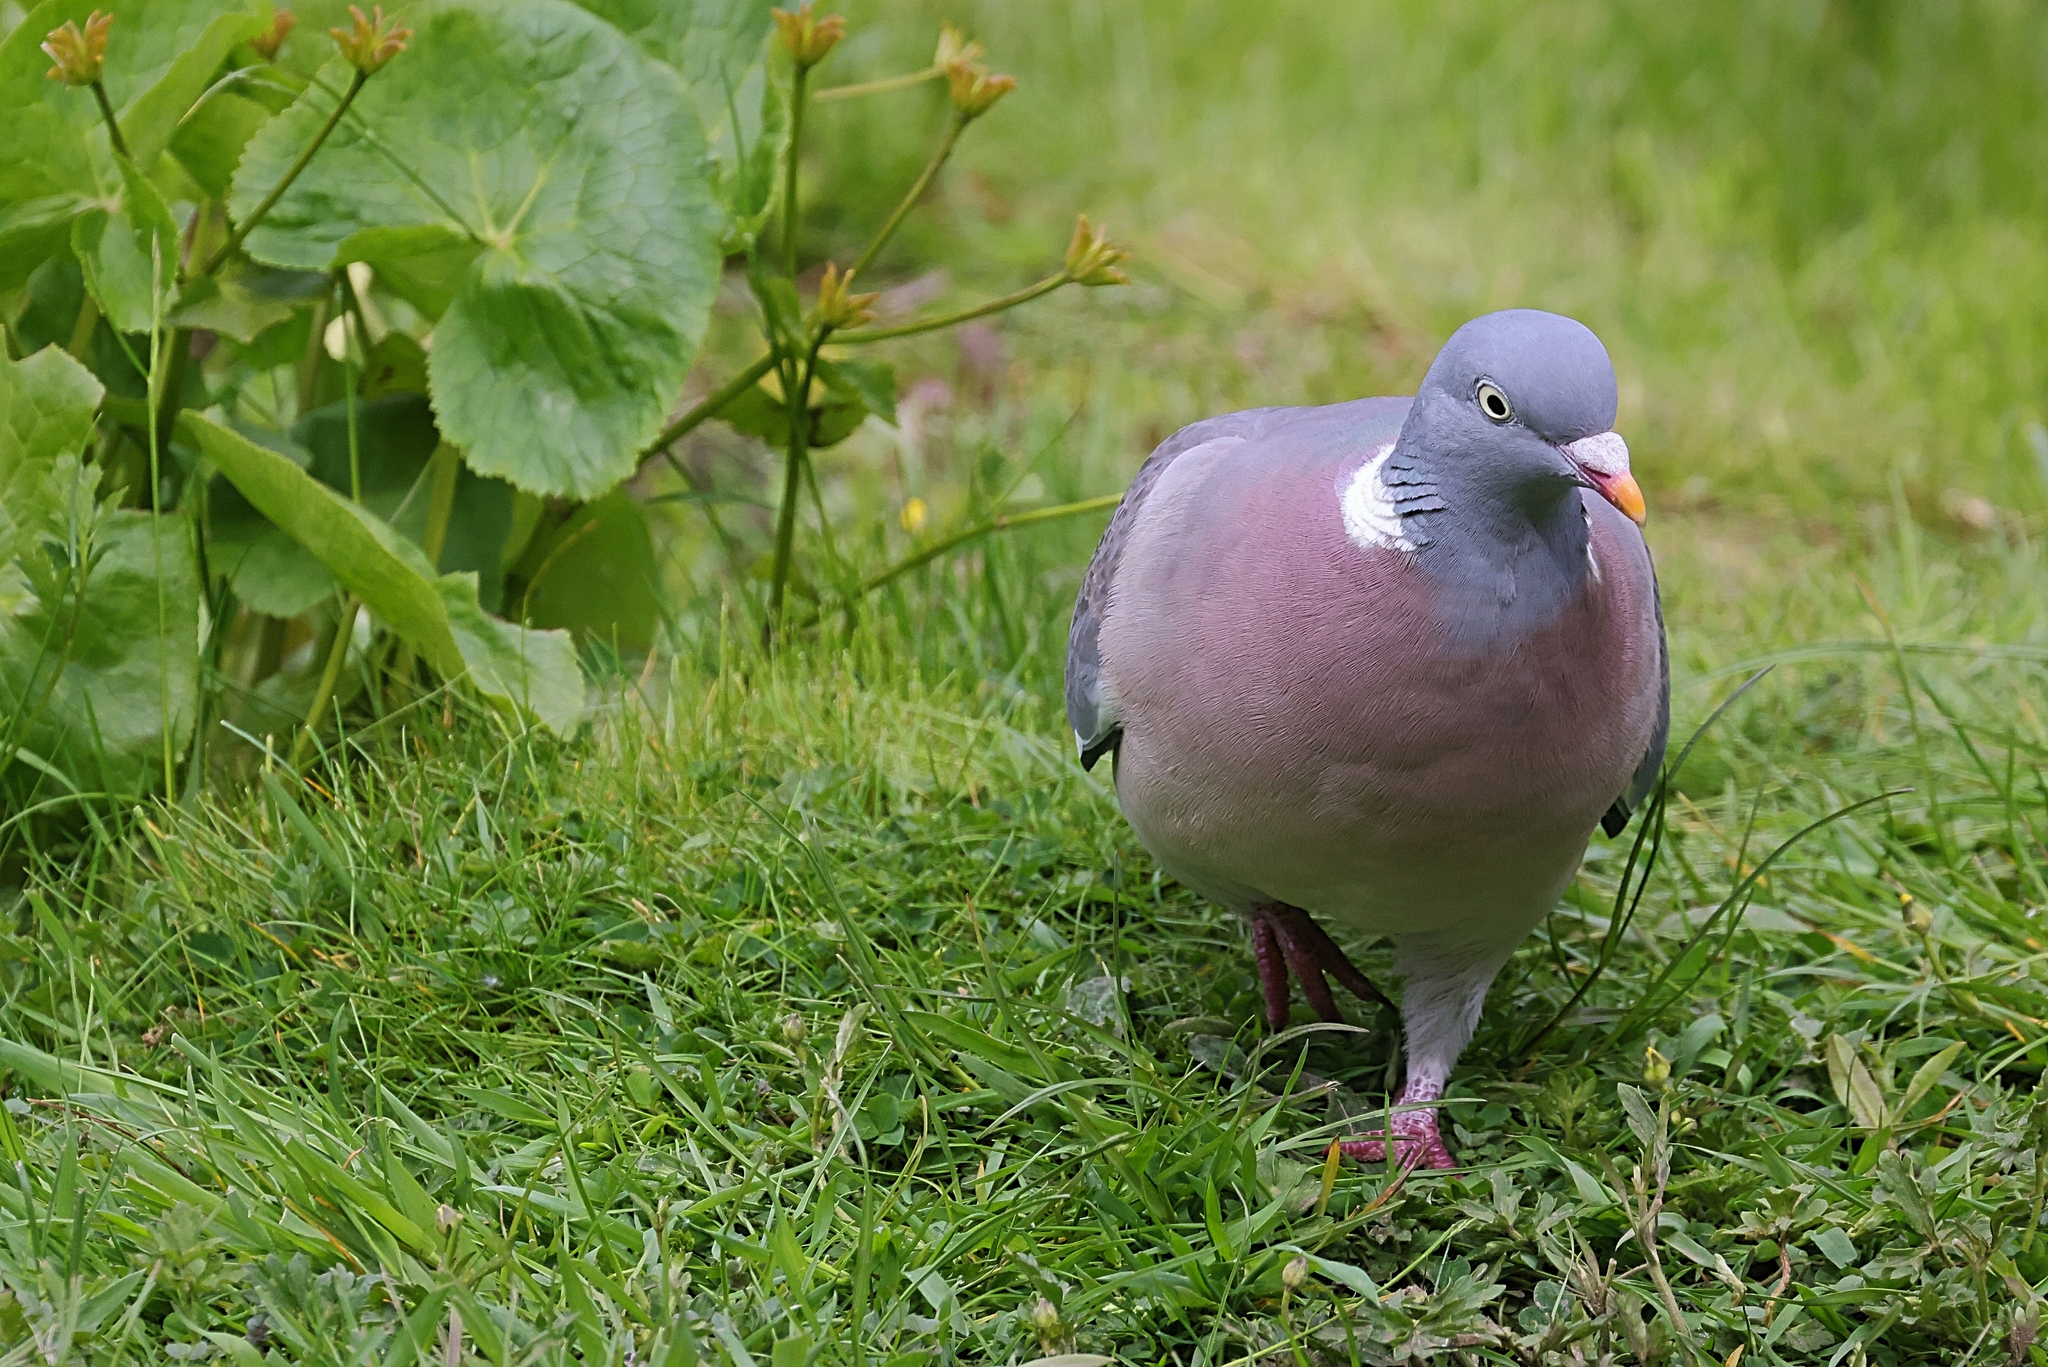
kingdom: Animalia
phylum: Chordata
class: Aves
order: Columbiformes
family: Columbidae
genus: Columba
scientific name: Columba palumbus
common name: Common wood pigeon
